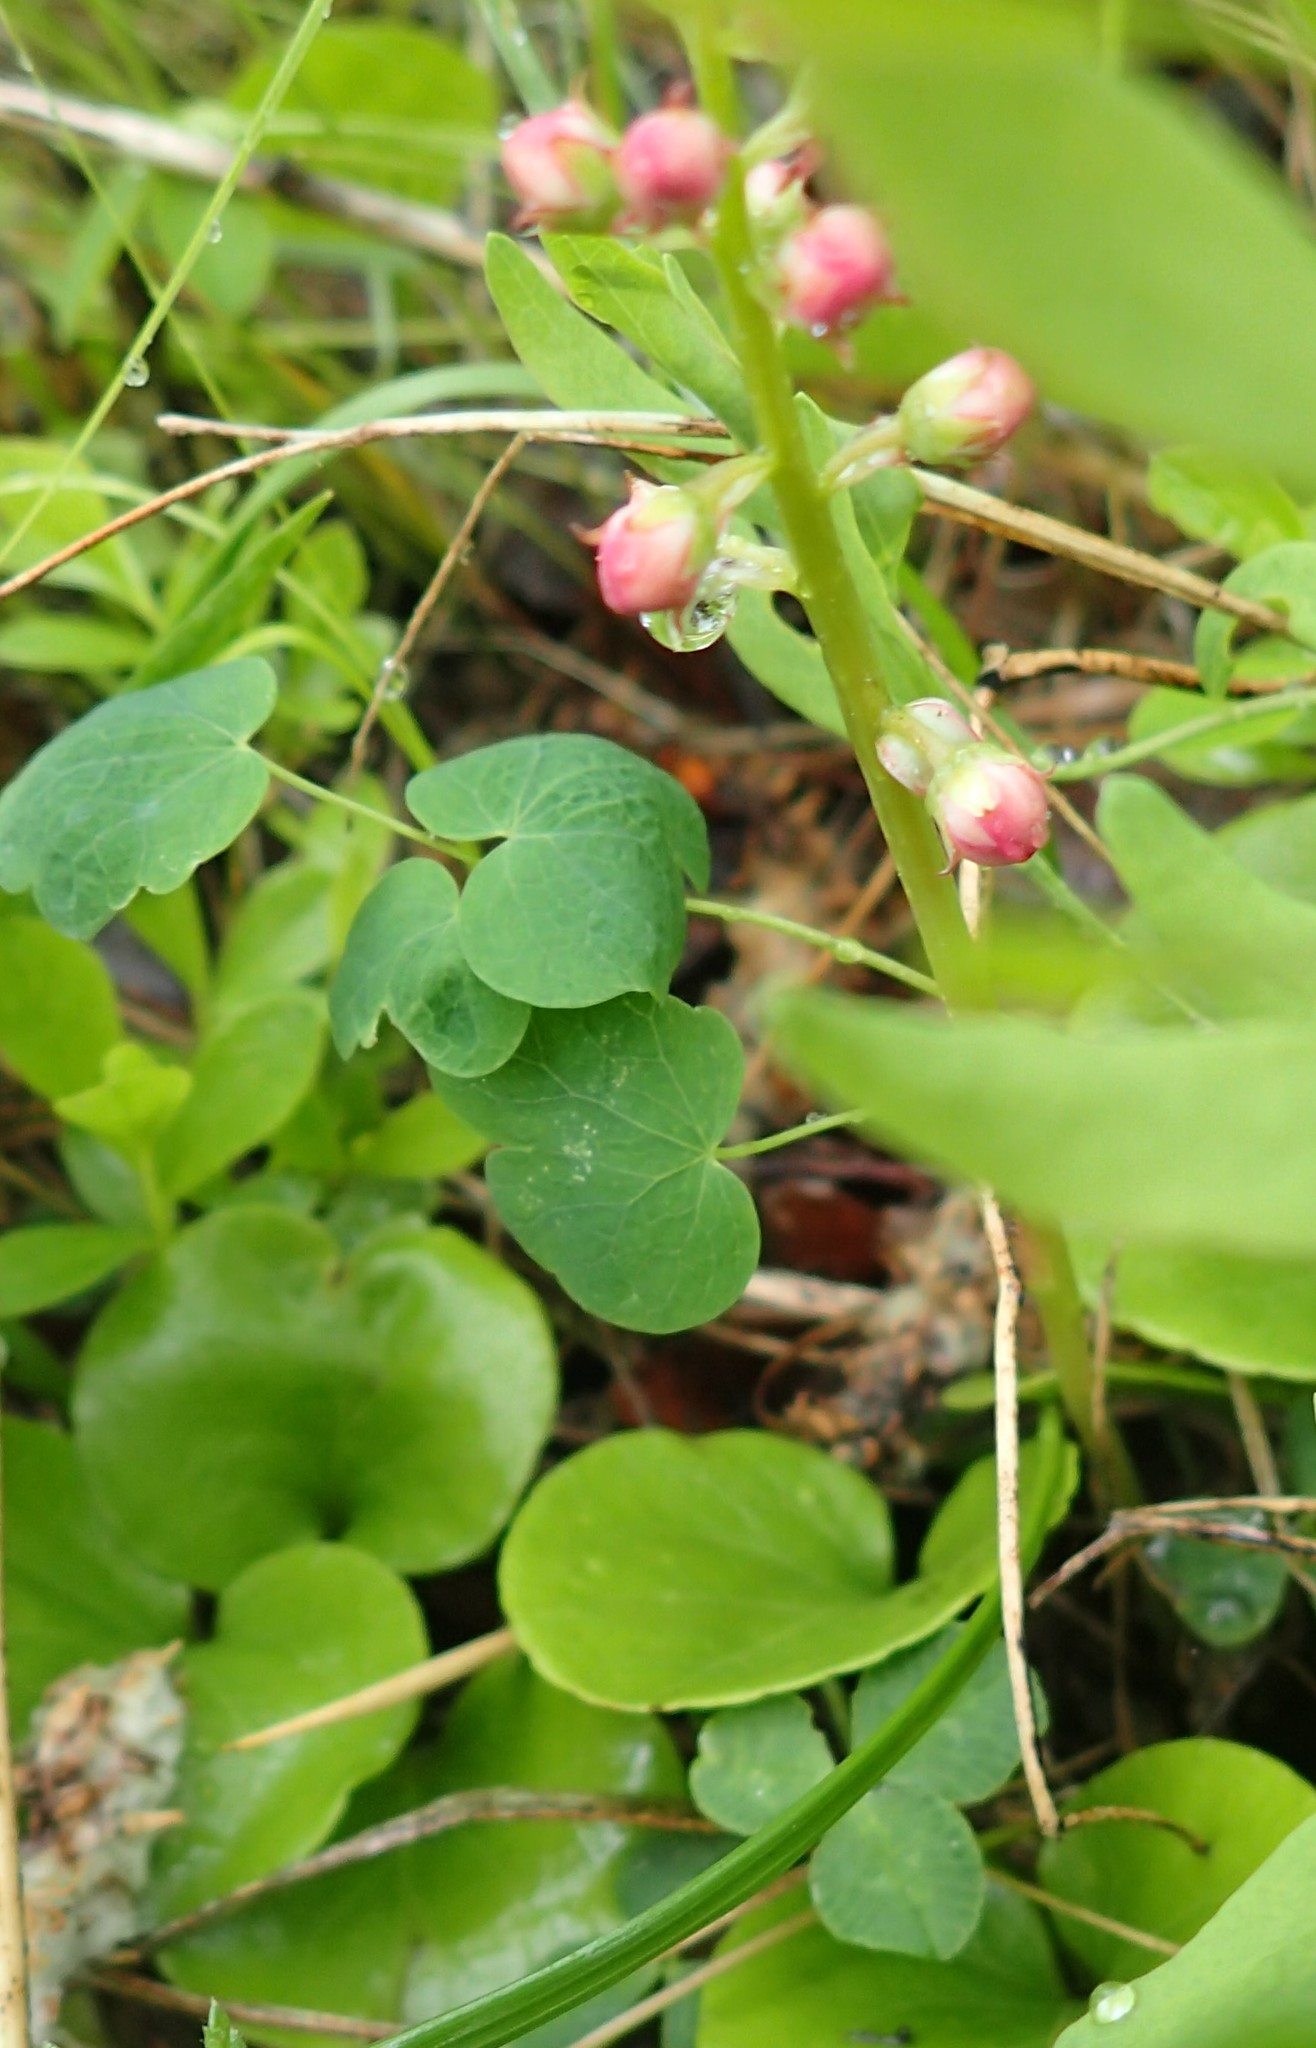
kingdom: Plantae
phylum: Tracheophyta
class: Magnoliopsida
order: Ericales
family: Ericaceae
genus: Pyrola
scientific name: Pyrola asarifolia
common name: Bog wintergreen
